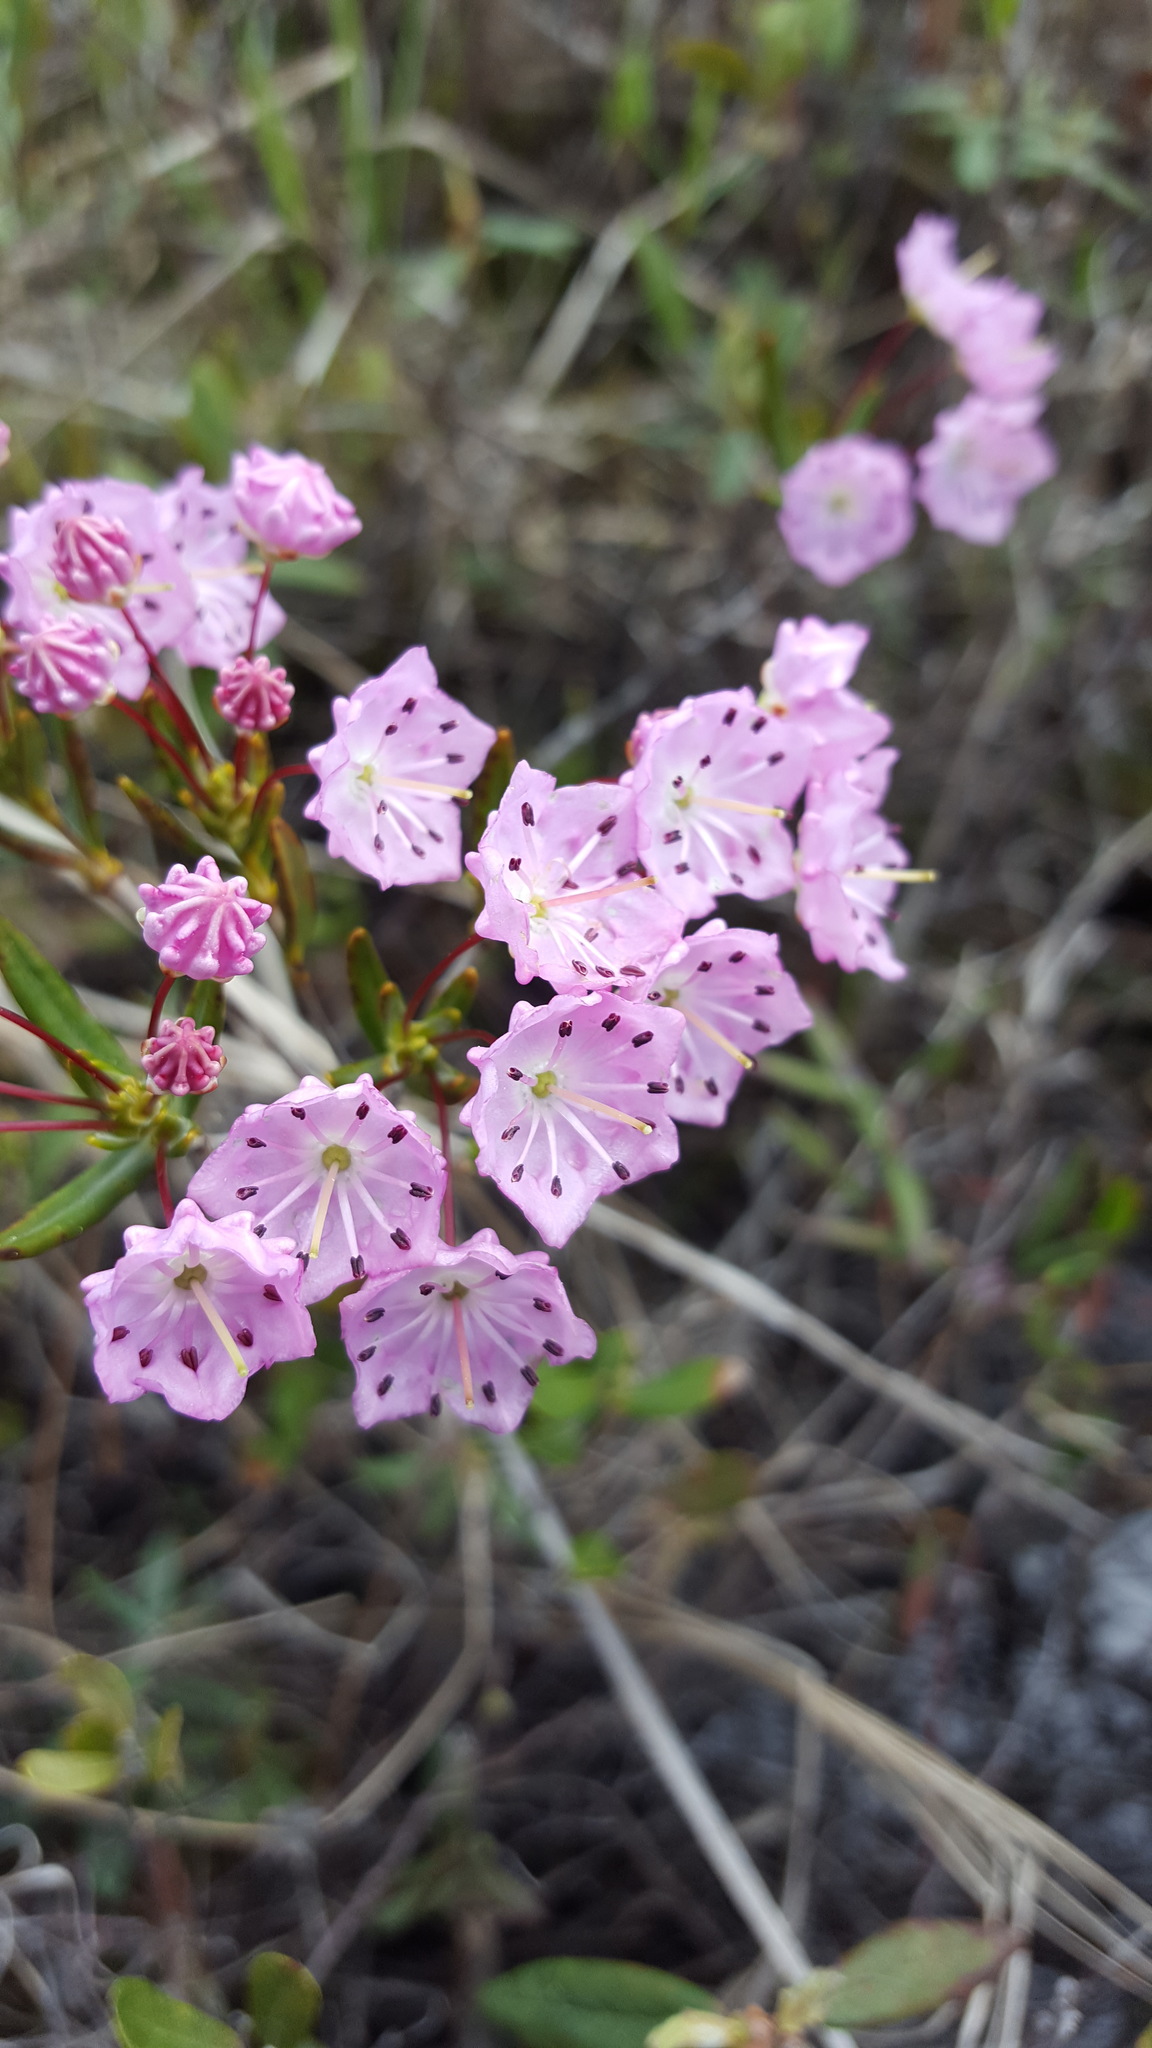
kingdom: Plantae
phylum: Tracheophyta
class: Magnoliopsida
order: Ericales
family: Ericaceae
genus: Kalmia
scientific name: Kalmia polifolia
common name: Bog-laurel
